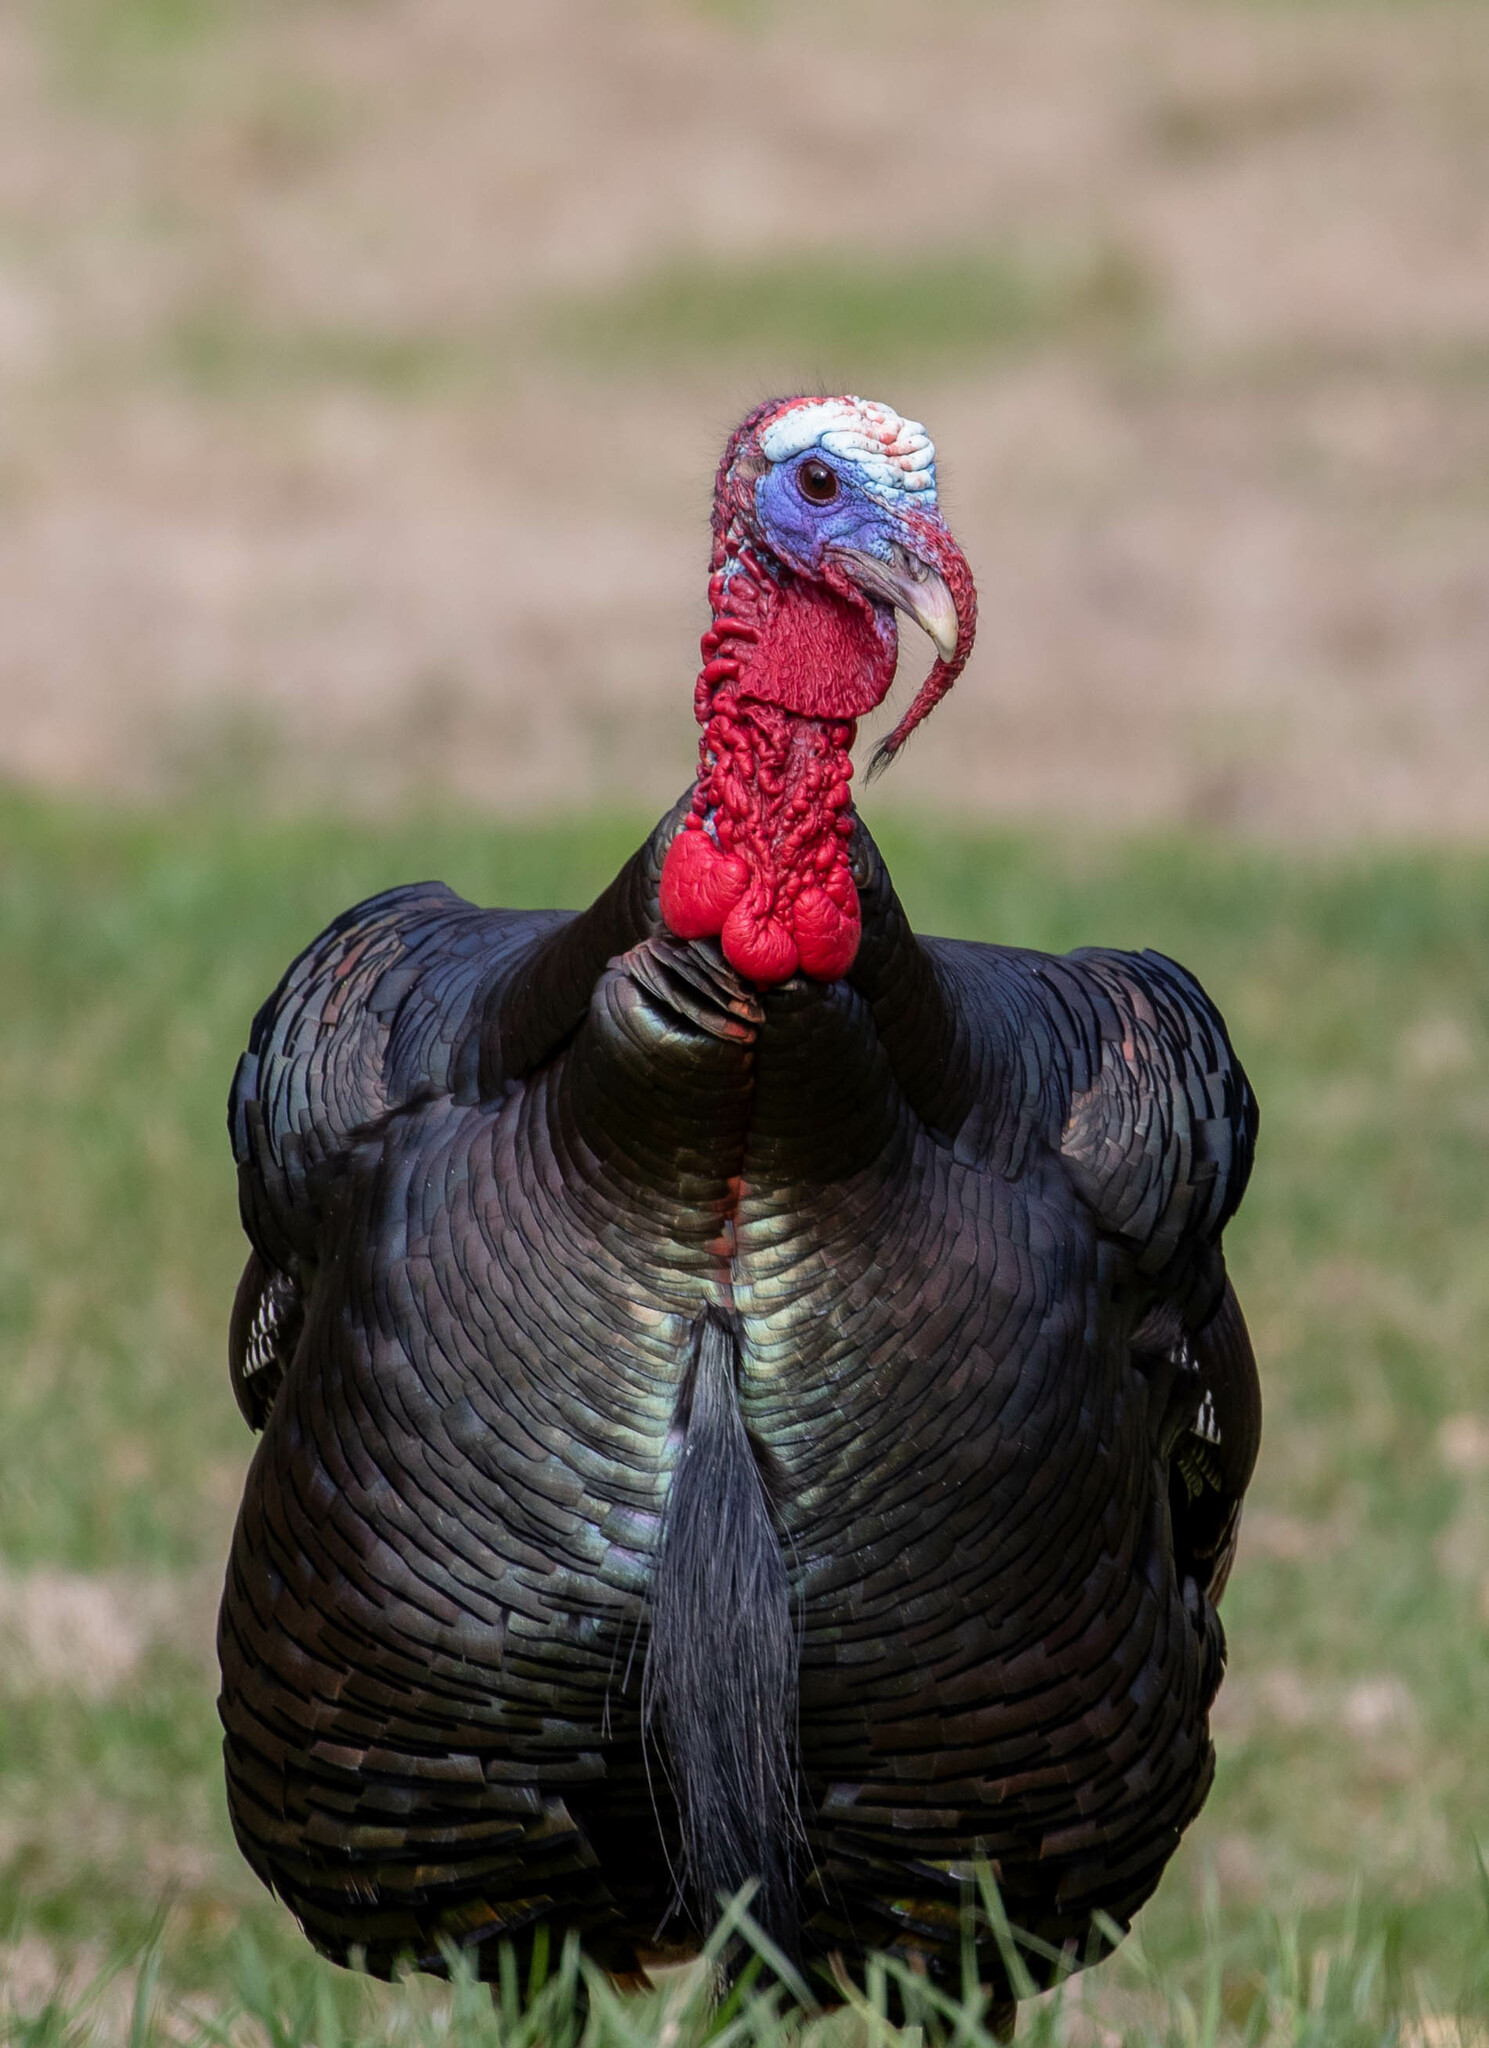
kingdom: Animalia
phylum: Chordata
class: Aves
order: Galliformes
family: Phasianidae
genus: Meleagris
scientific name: Meleagris gallopavo
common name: Wild turkey
